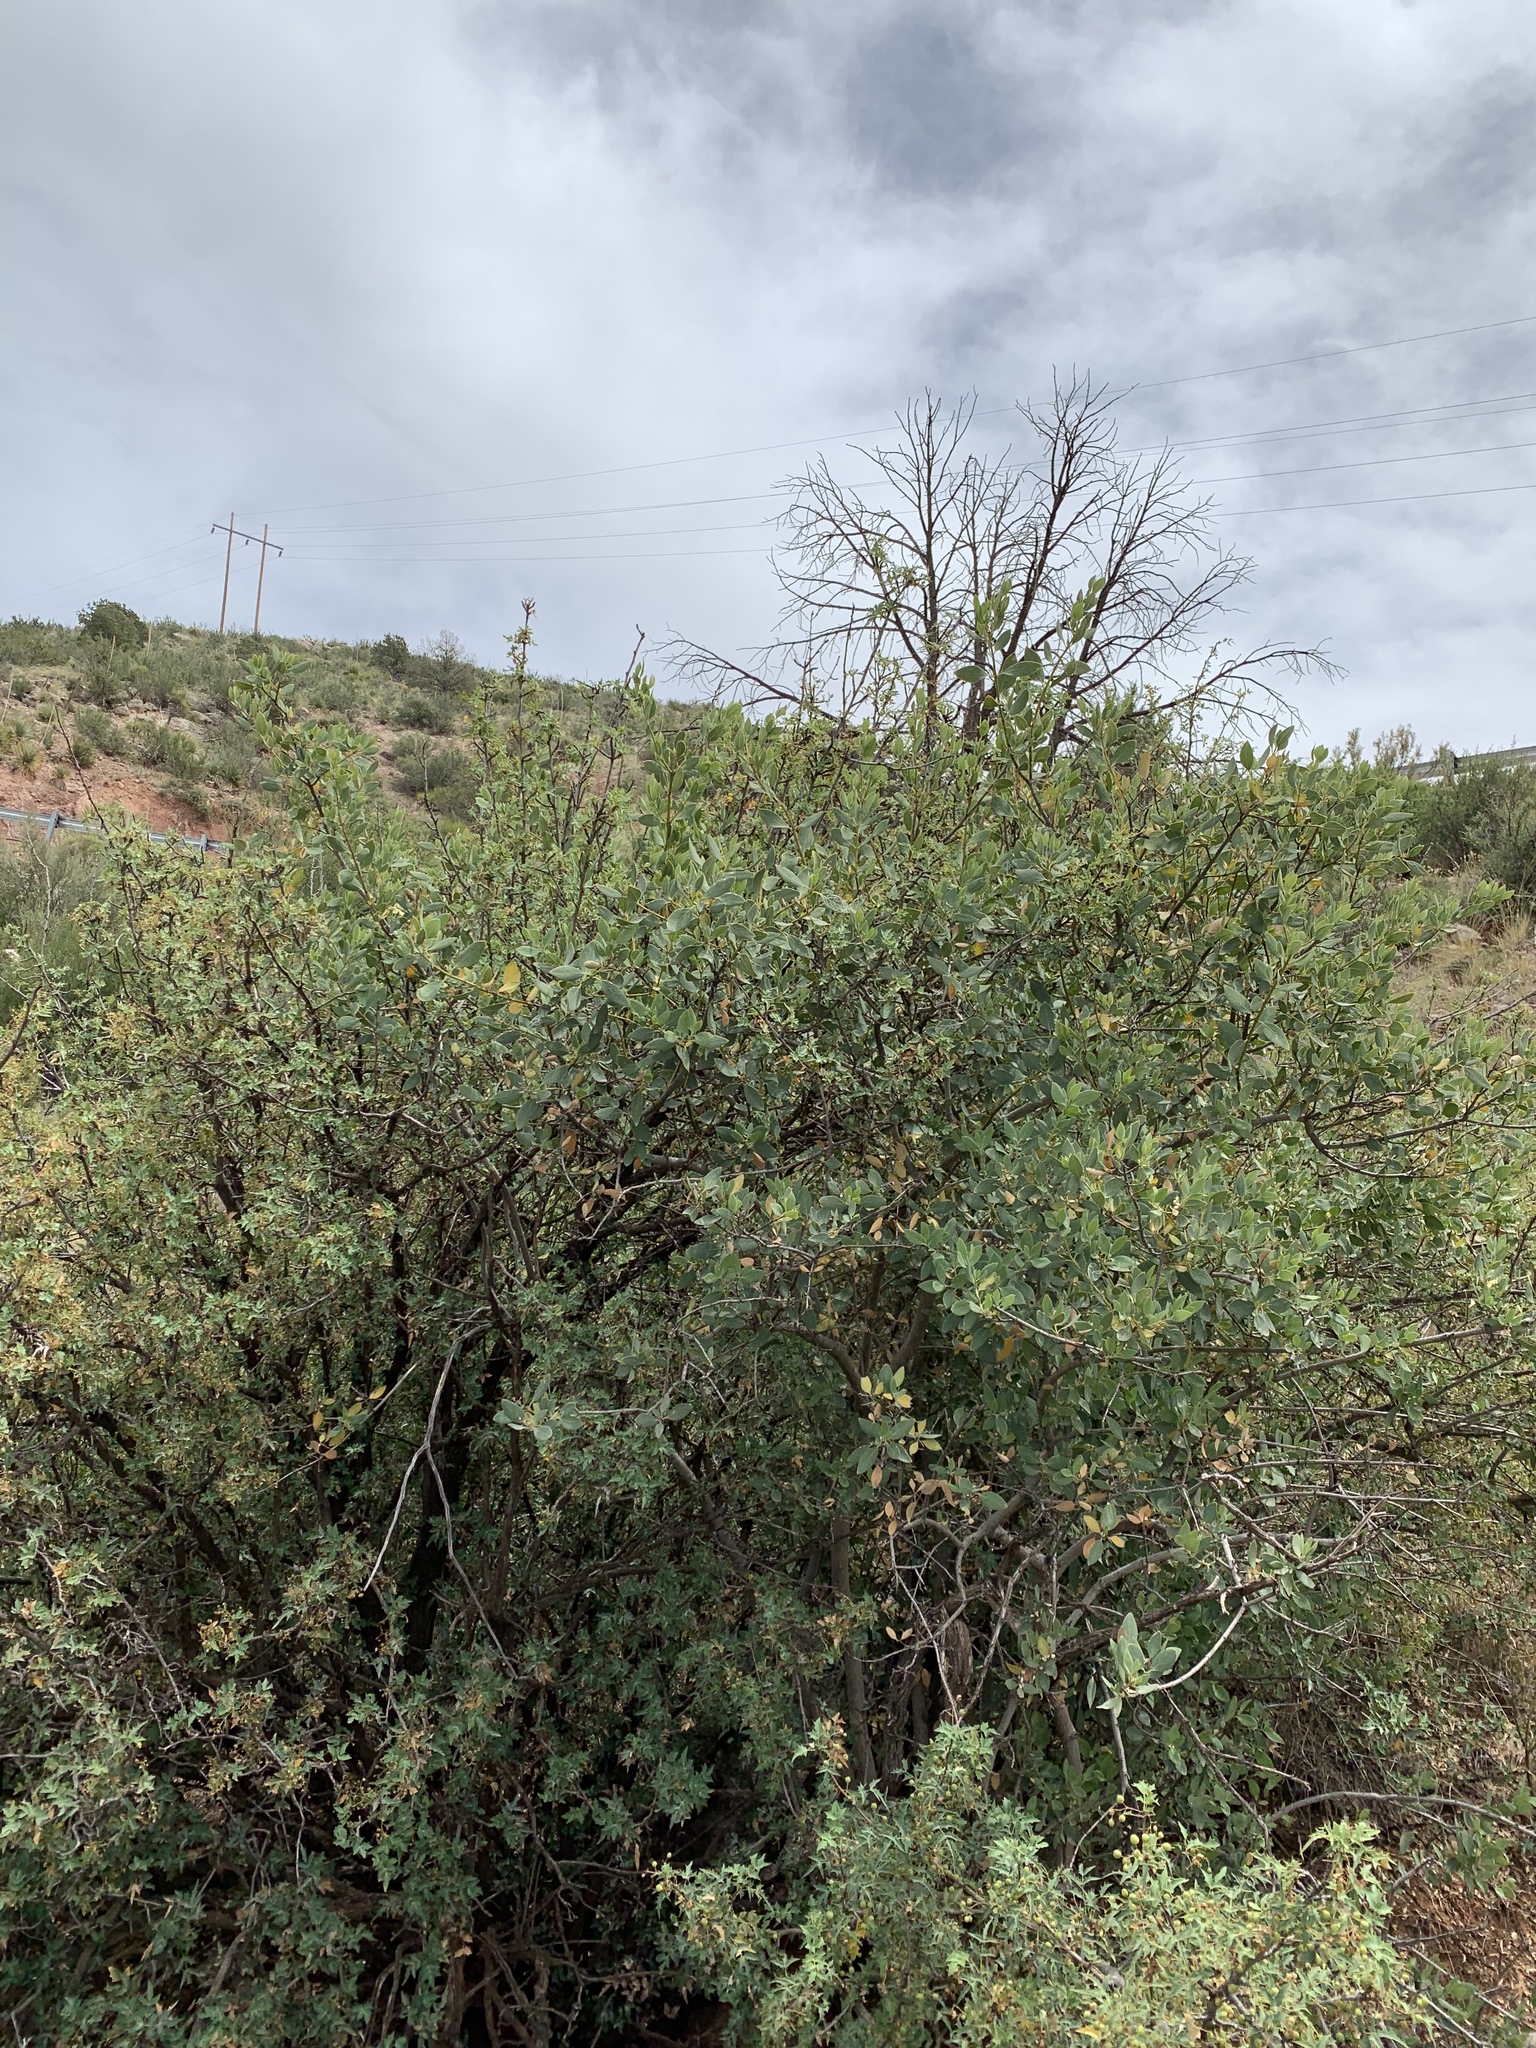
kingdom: Plantae
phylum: Tracheophyta
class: Magnoliopsida
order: Garryales
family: Garryaceae
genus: Garrya
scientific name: Garrya wrightii
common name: Wright's silktassel
